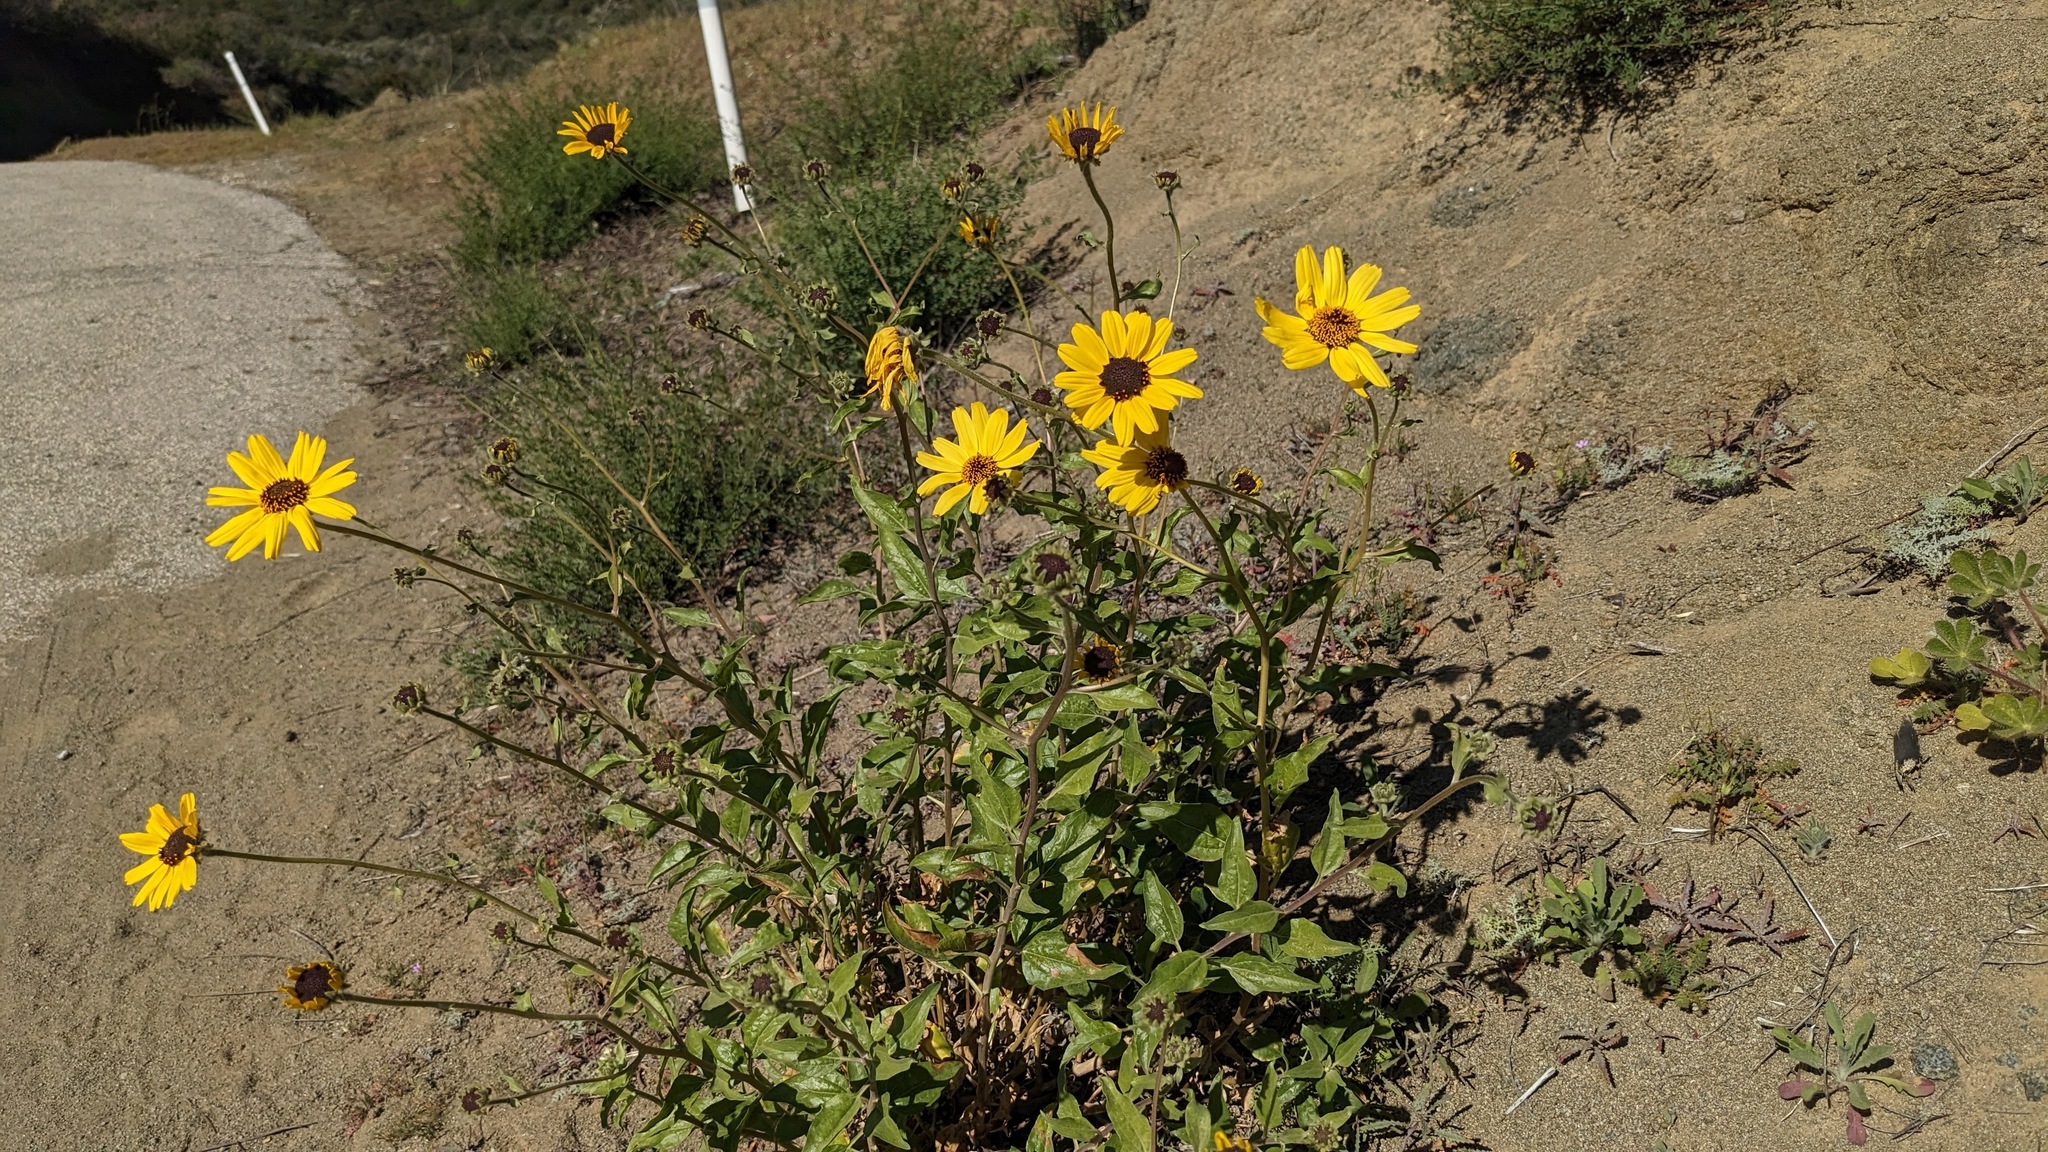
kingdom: Plantae
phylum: Tracheophyta
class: Magnoliopsida
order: Asterales
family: Asteraceae
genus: Encelia
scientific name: Encelia californica
